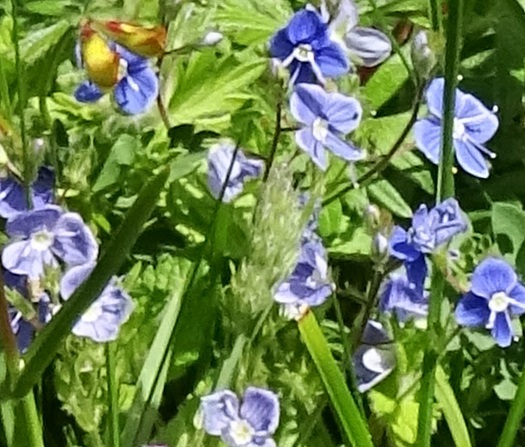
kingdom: Plantae
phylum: Tracheophyta
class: Magnoliopsida
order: Lamiales
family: Plantaginaceae
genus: Veronica
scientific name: Veronica chamaedrys
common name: Germander speedwell
